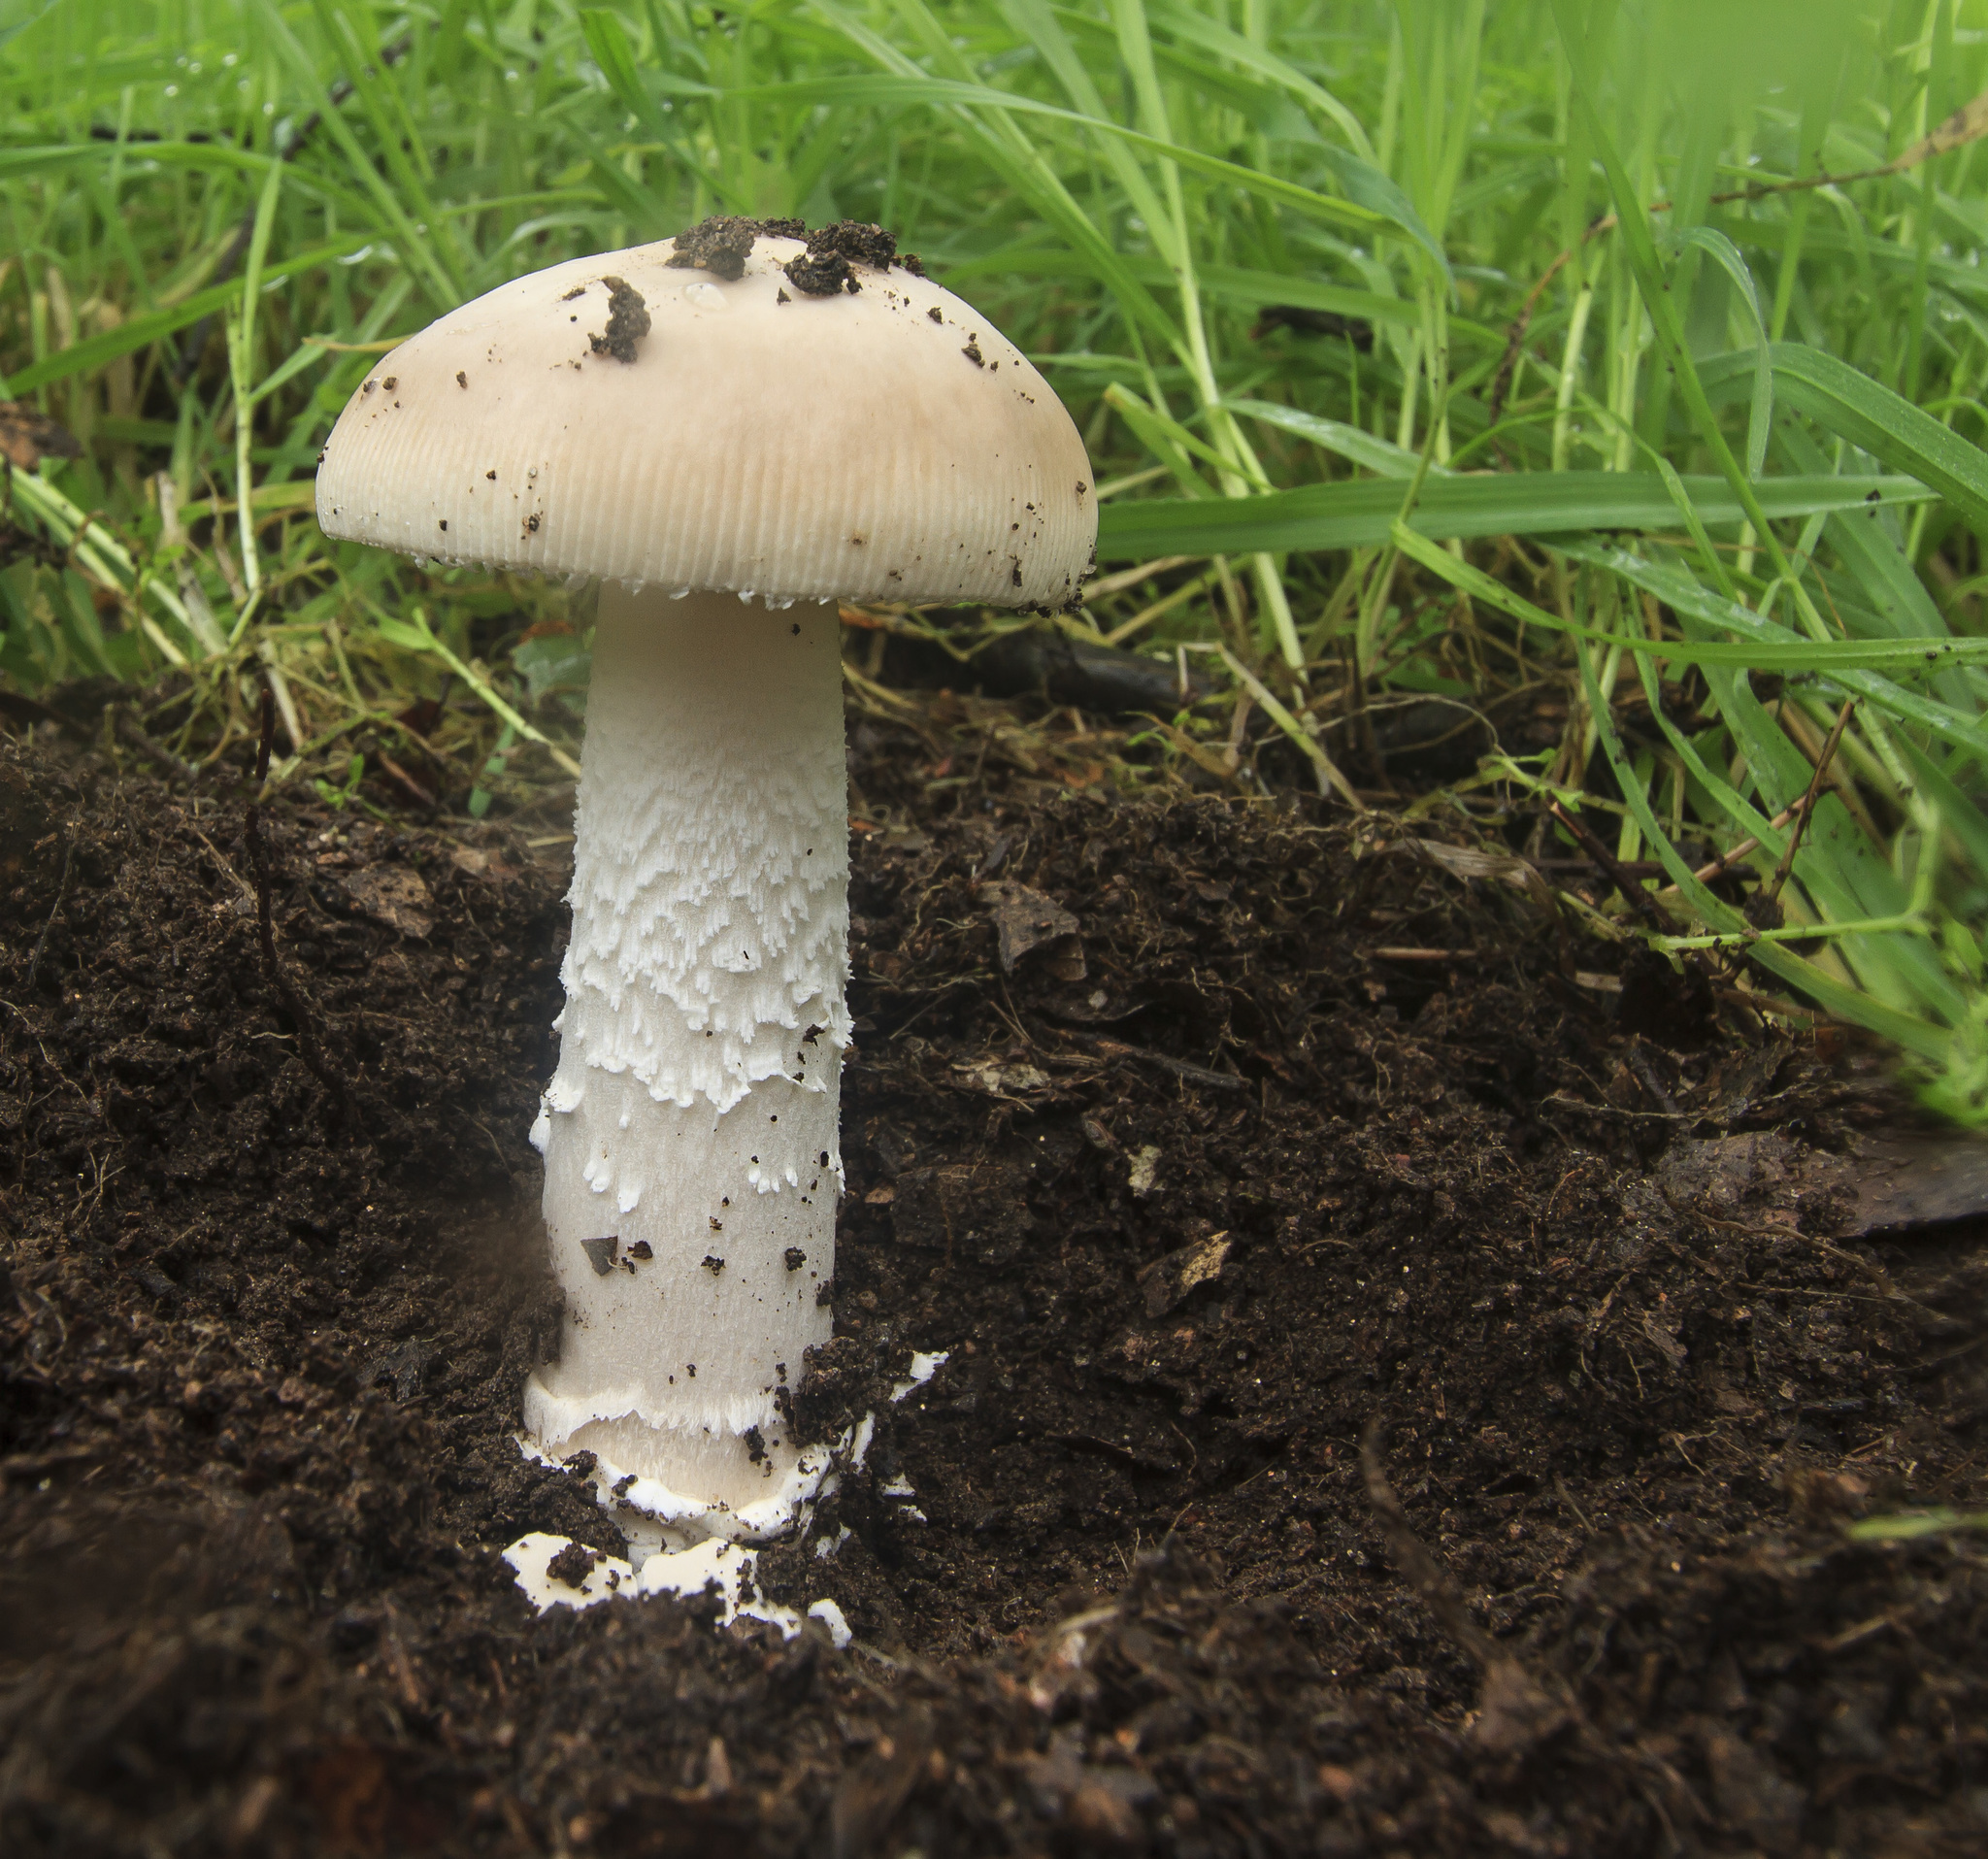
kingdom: Fungi
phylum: Basidiomycota
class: Agaricomycetes
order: Agaricales
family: Amanitaceae
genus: Amanita
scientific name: Amanita velosa
